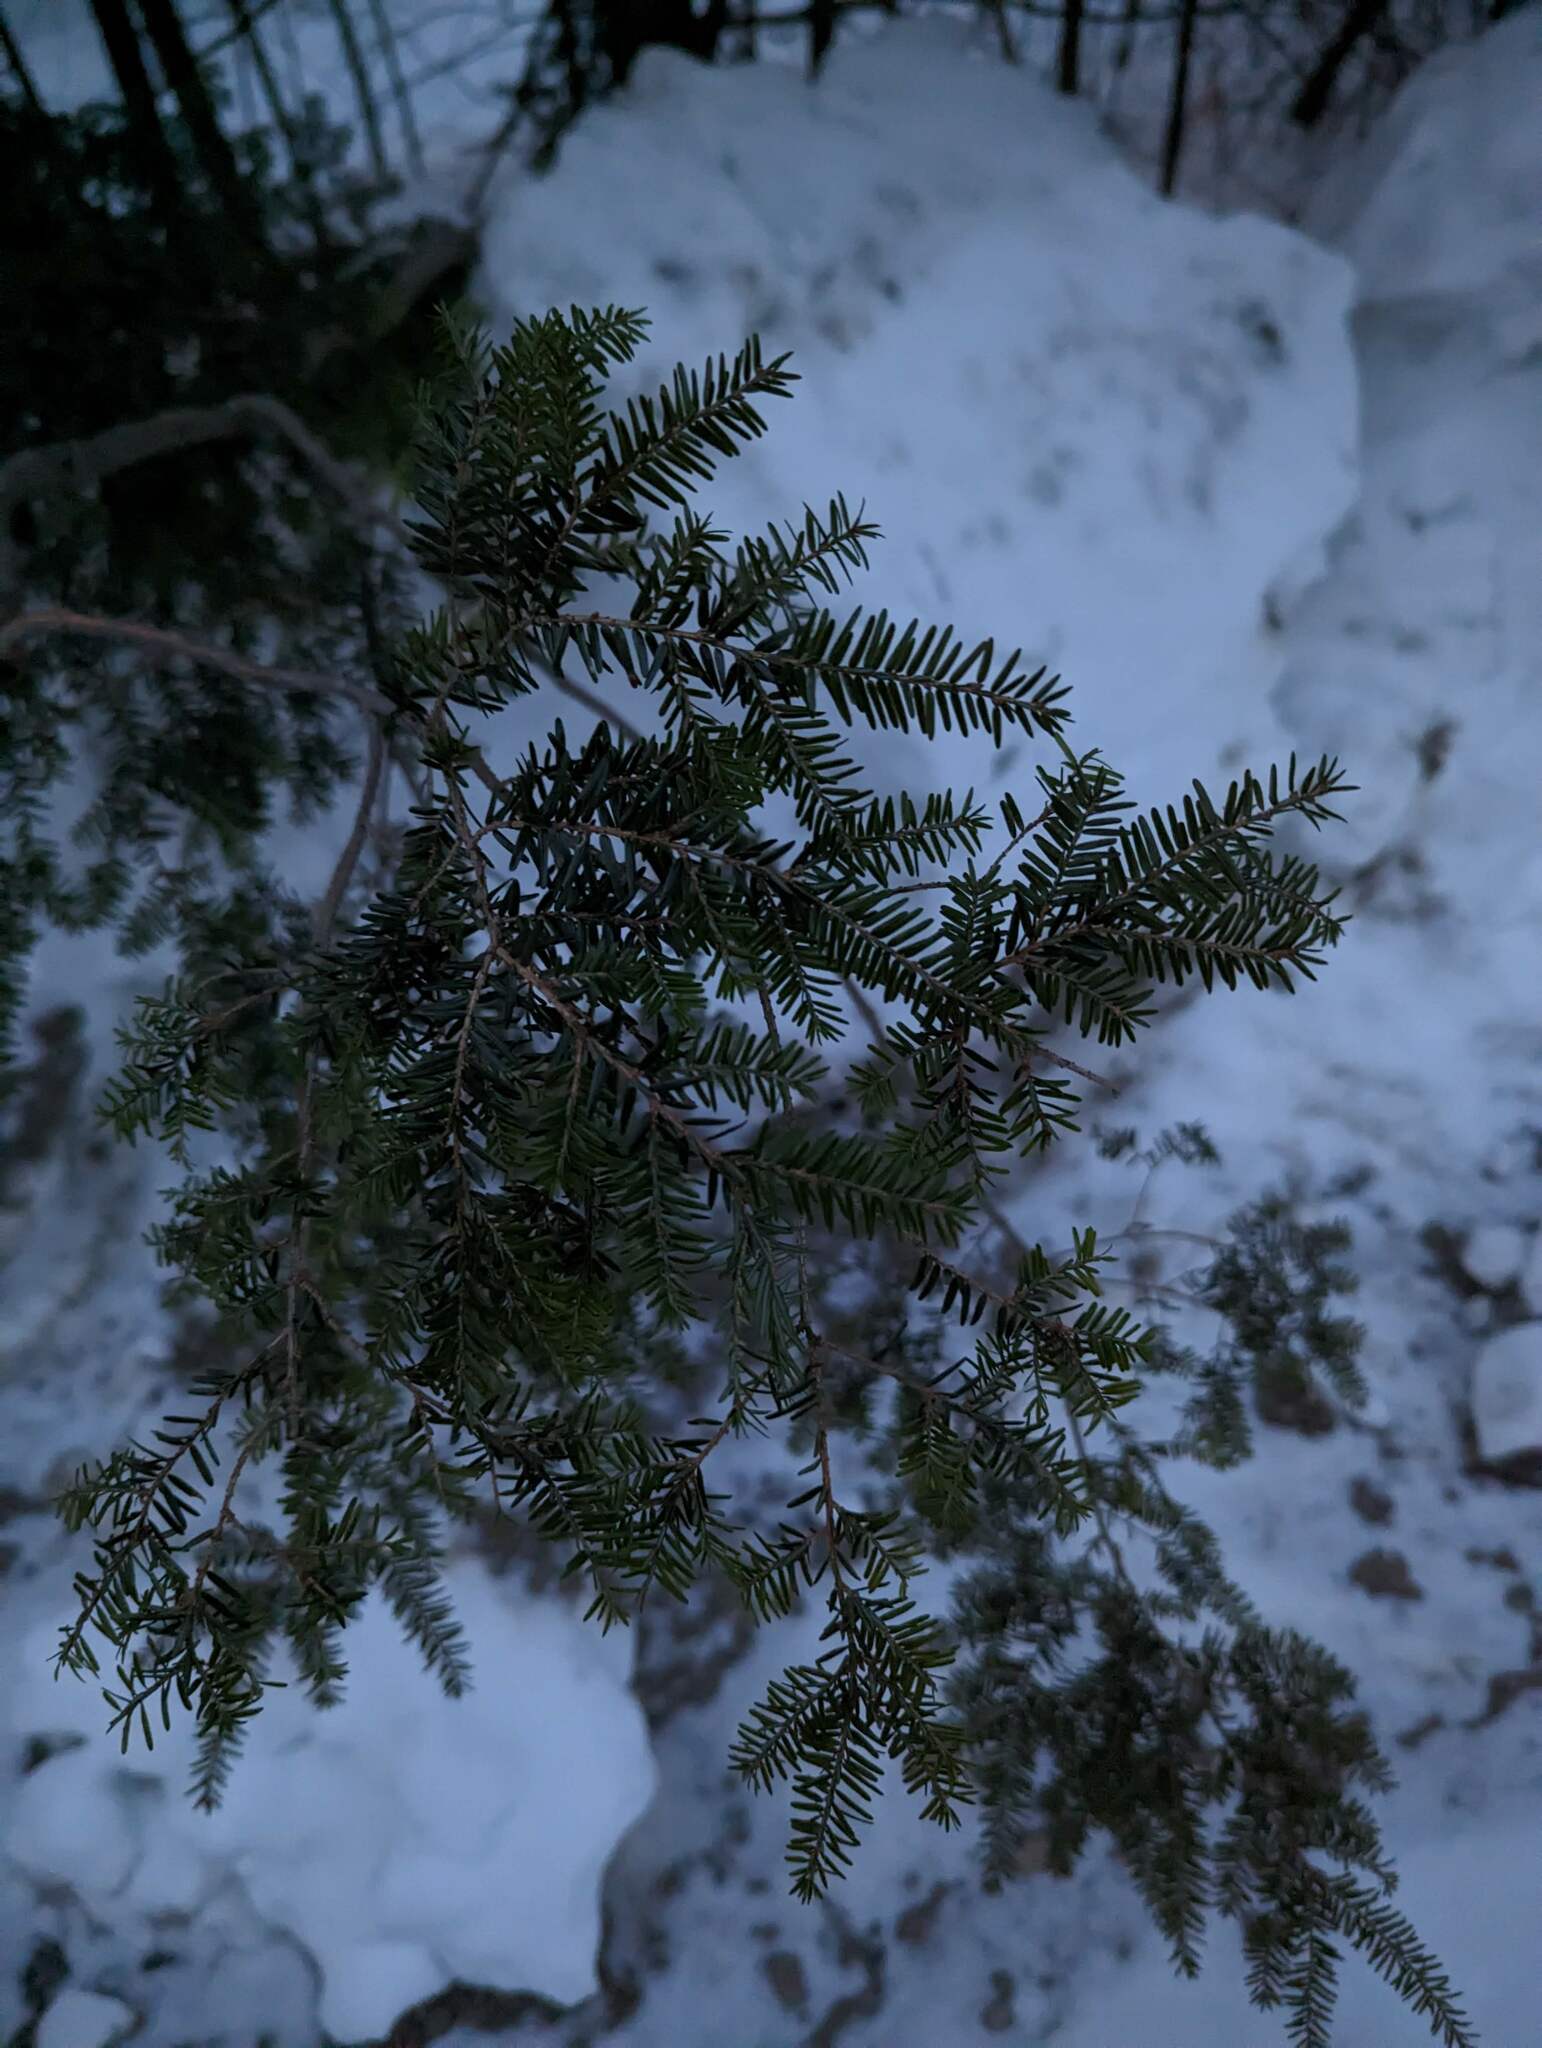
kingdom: Plantae
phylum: Tracheophyta
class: Pinopsida
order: Pinales
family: Pinaceae
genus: Tsuga
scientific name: Tsuga canadensis
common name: Eastern hemlock
